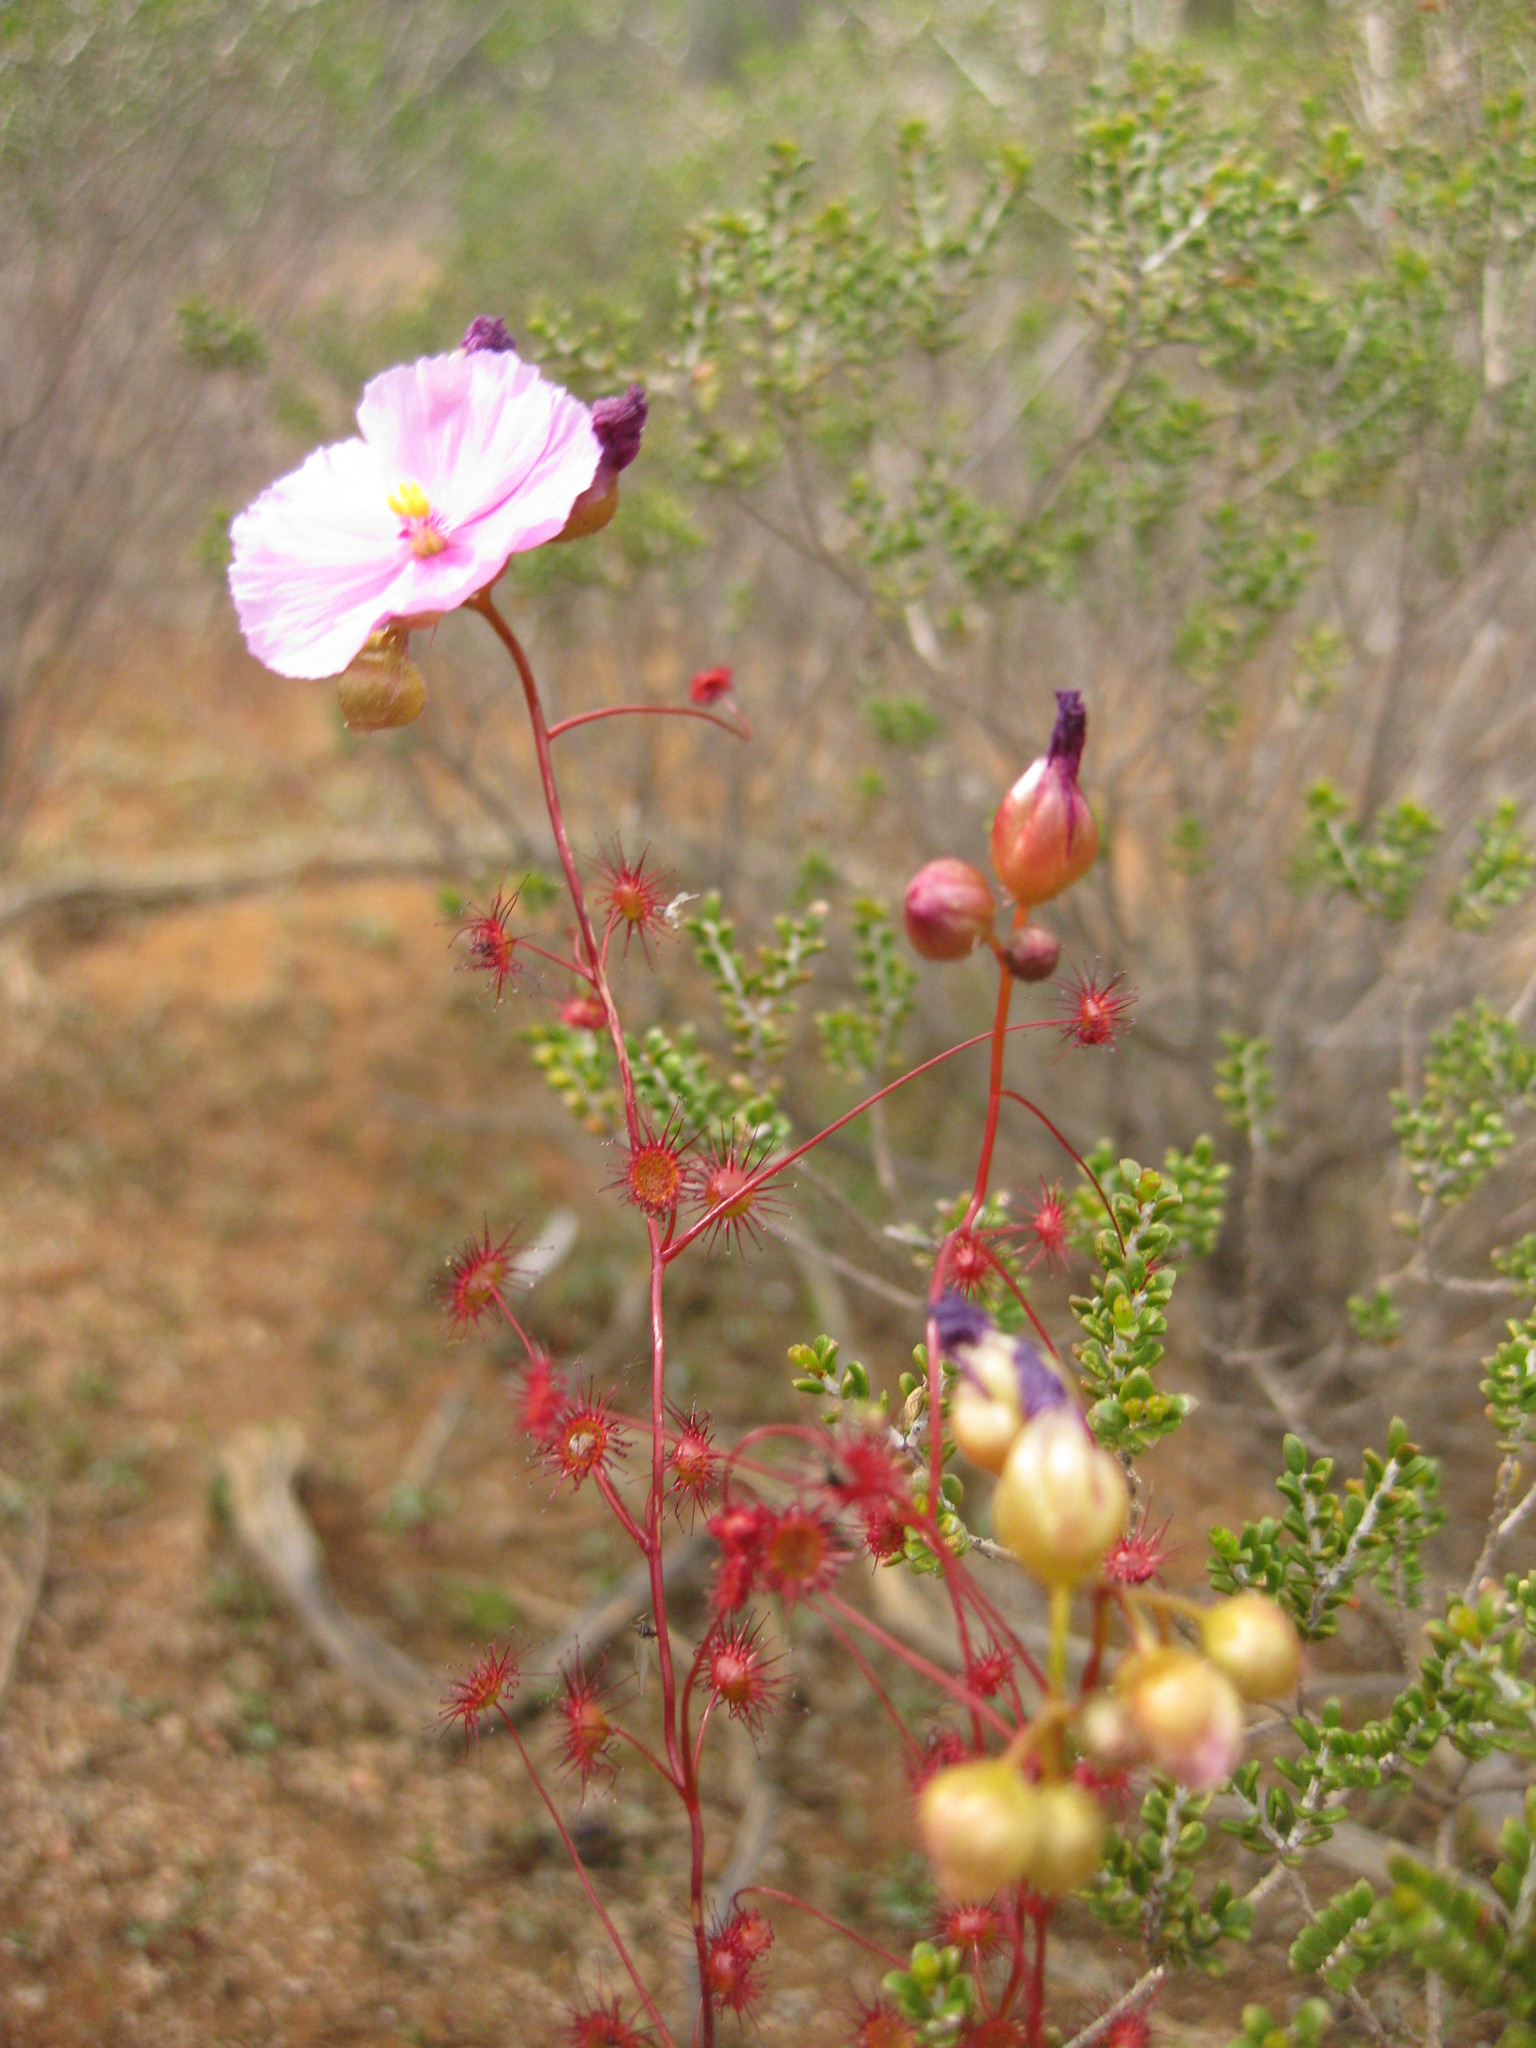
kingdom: Plantae
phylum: Tracheophyta
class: Magnoliopsida
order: Caryophyllales
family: Droseraceae
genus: Drosera
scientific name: Drosera menziesii
